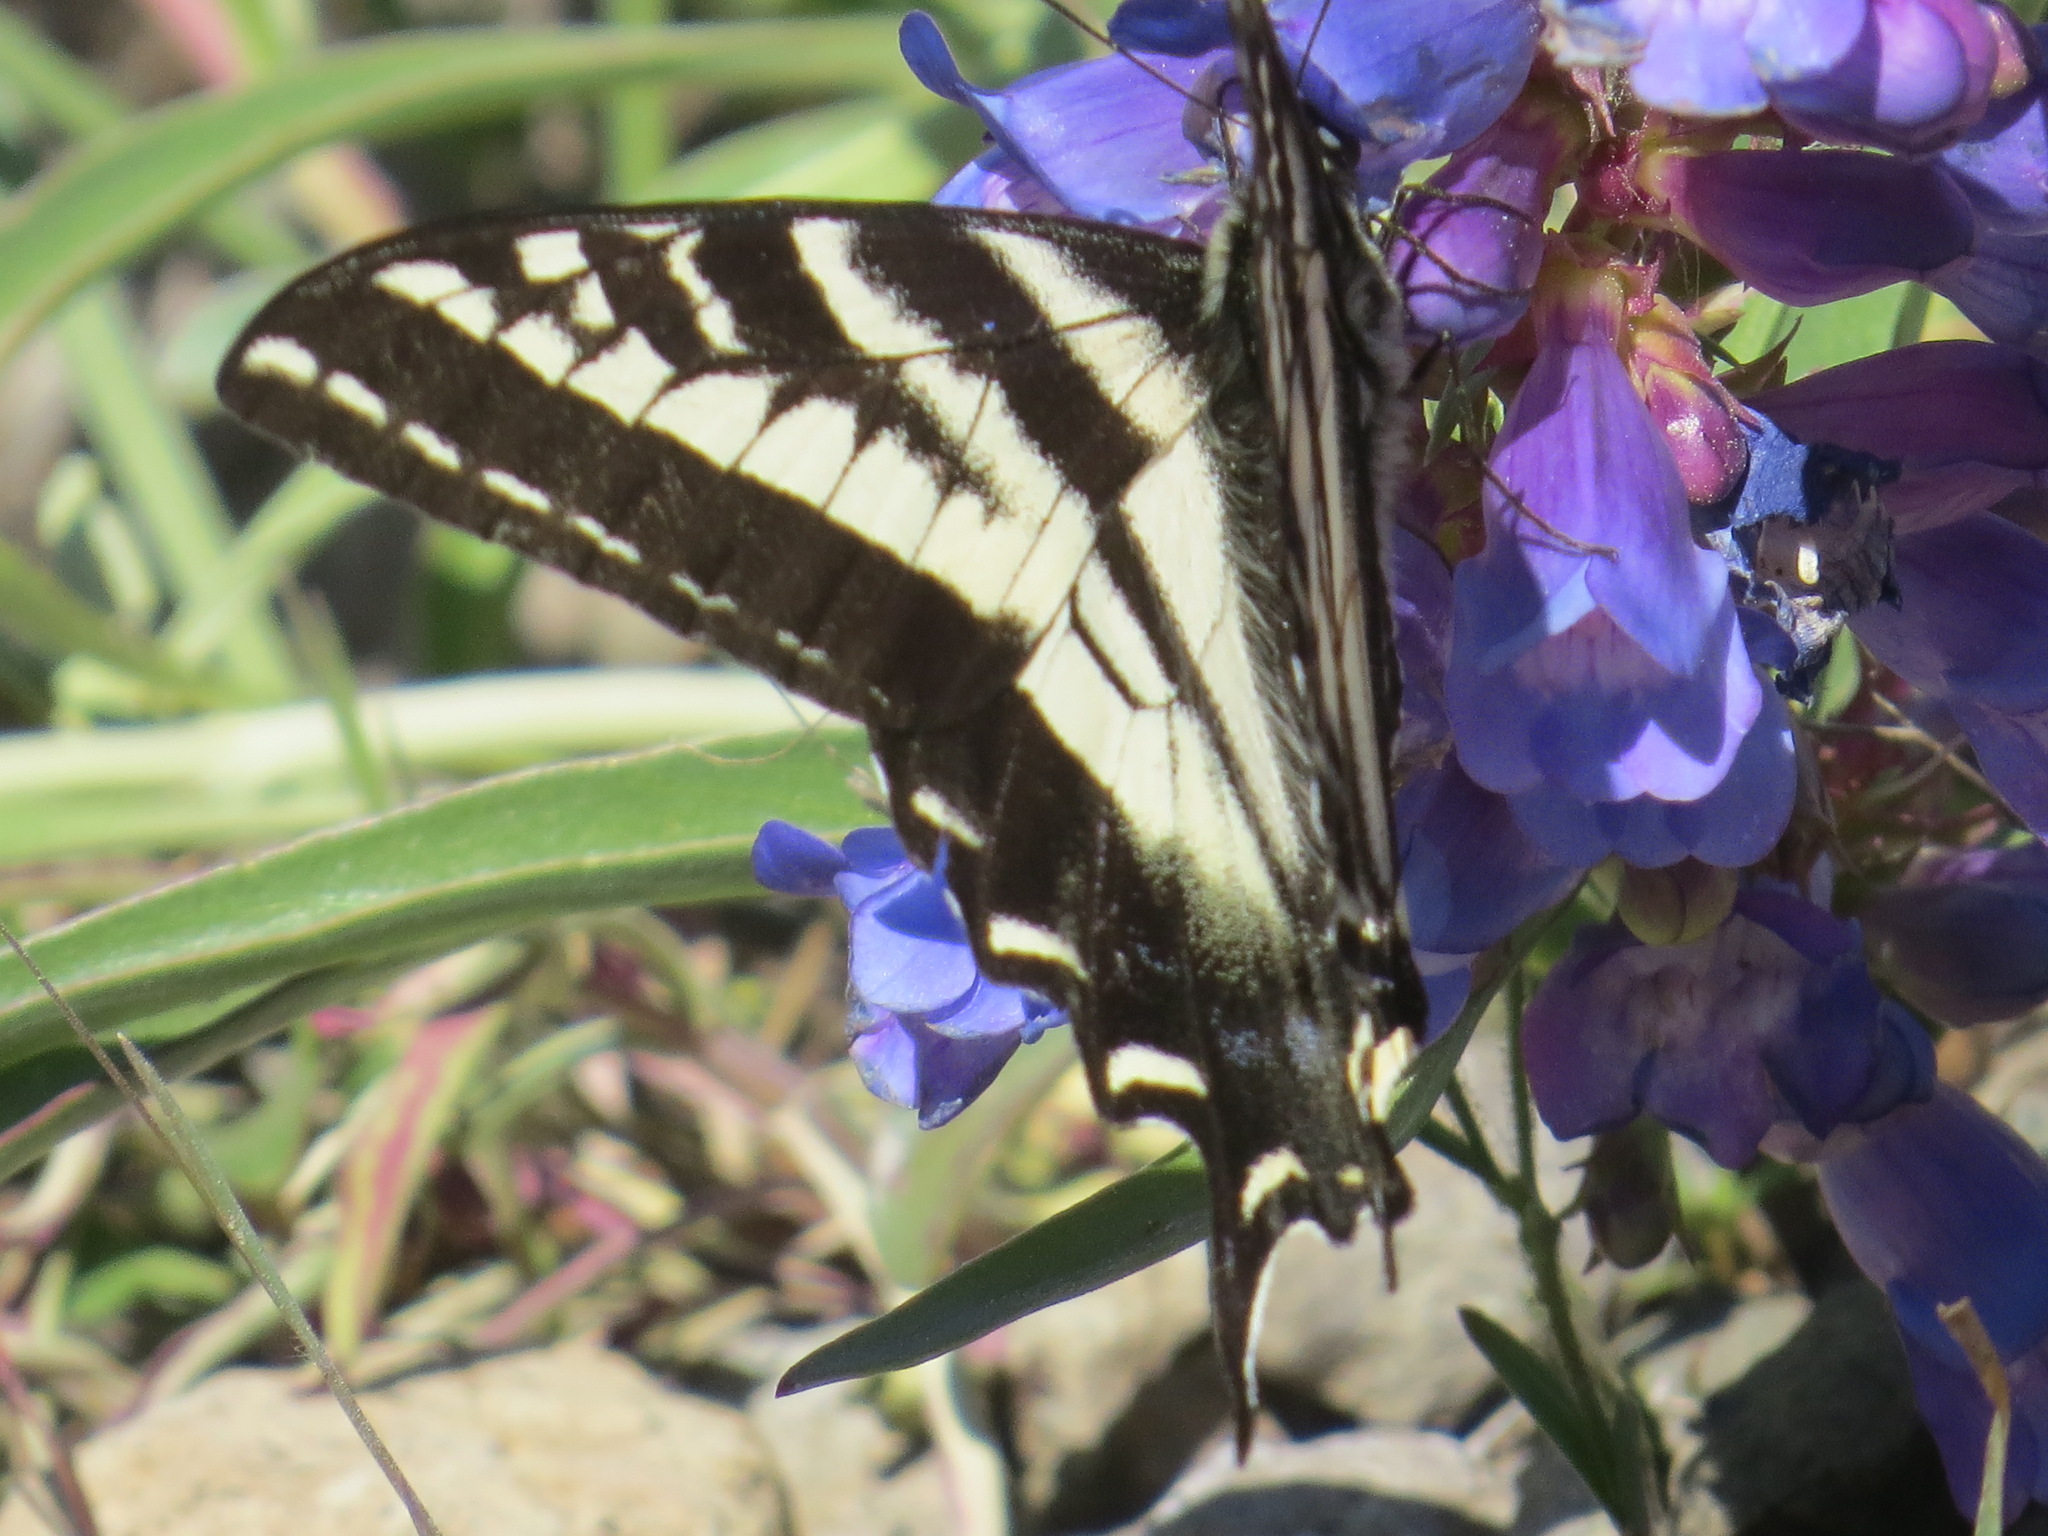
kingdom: Animalia
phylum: Arthropoda
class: Insecta
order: Lepidoptera
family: Papilionidae
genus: Papilio
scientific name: Papilio eurymedon
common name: Pale tiger swallowtail
